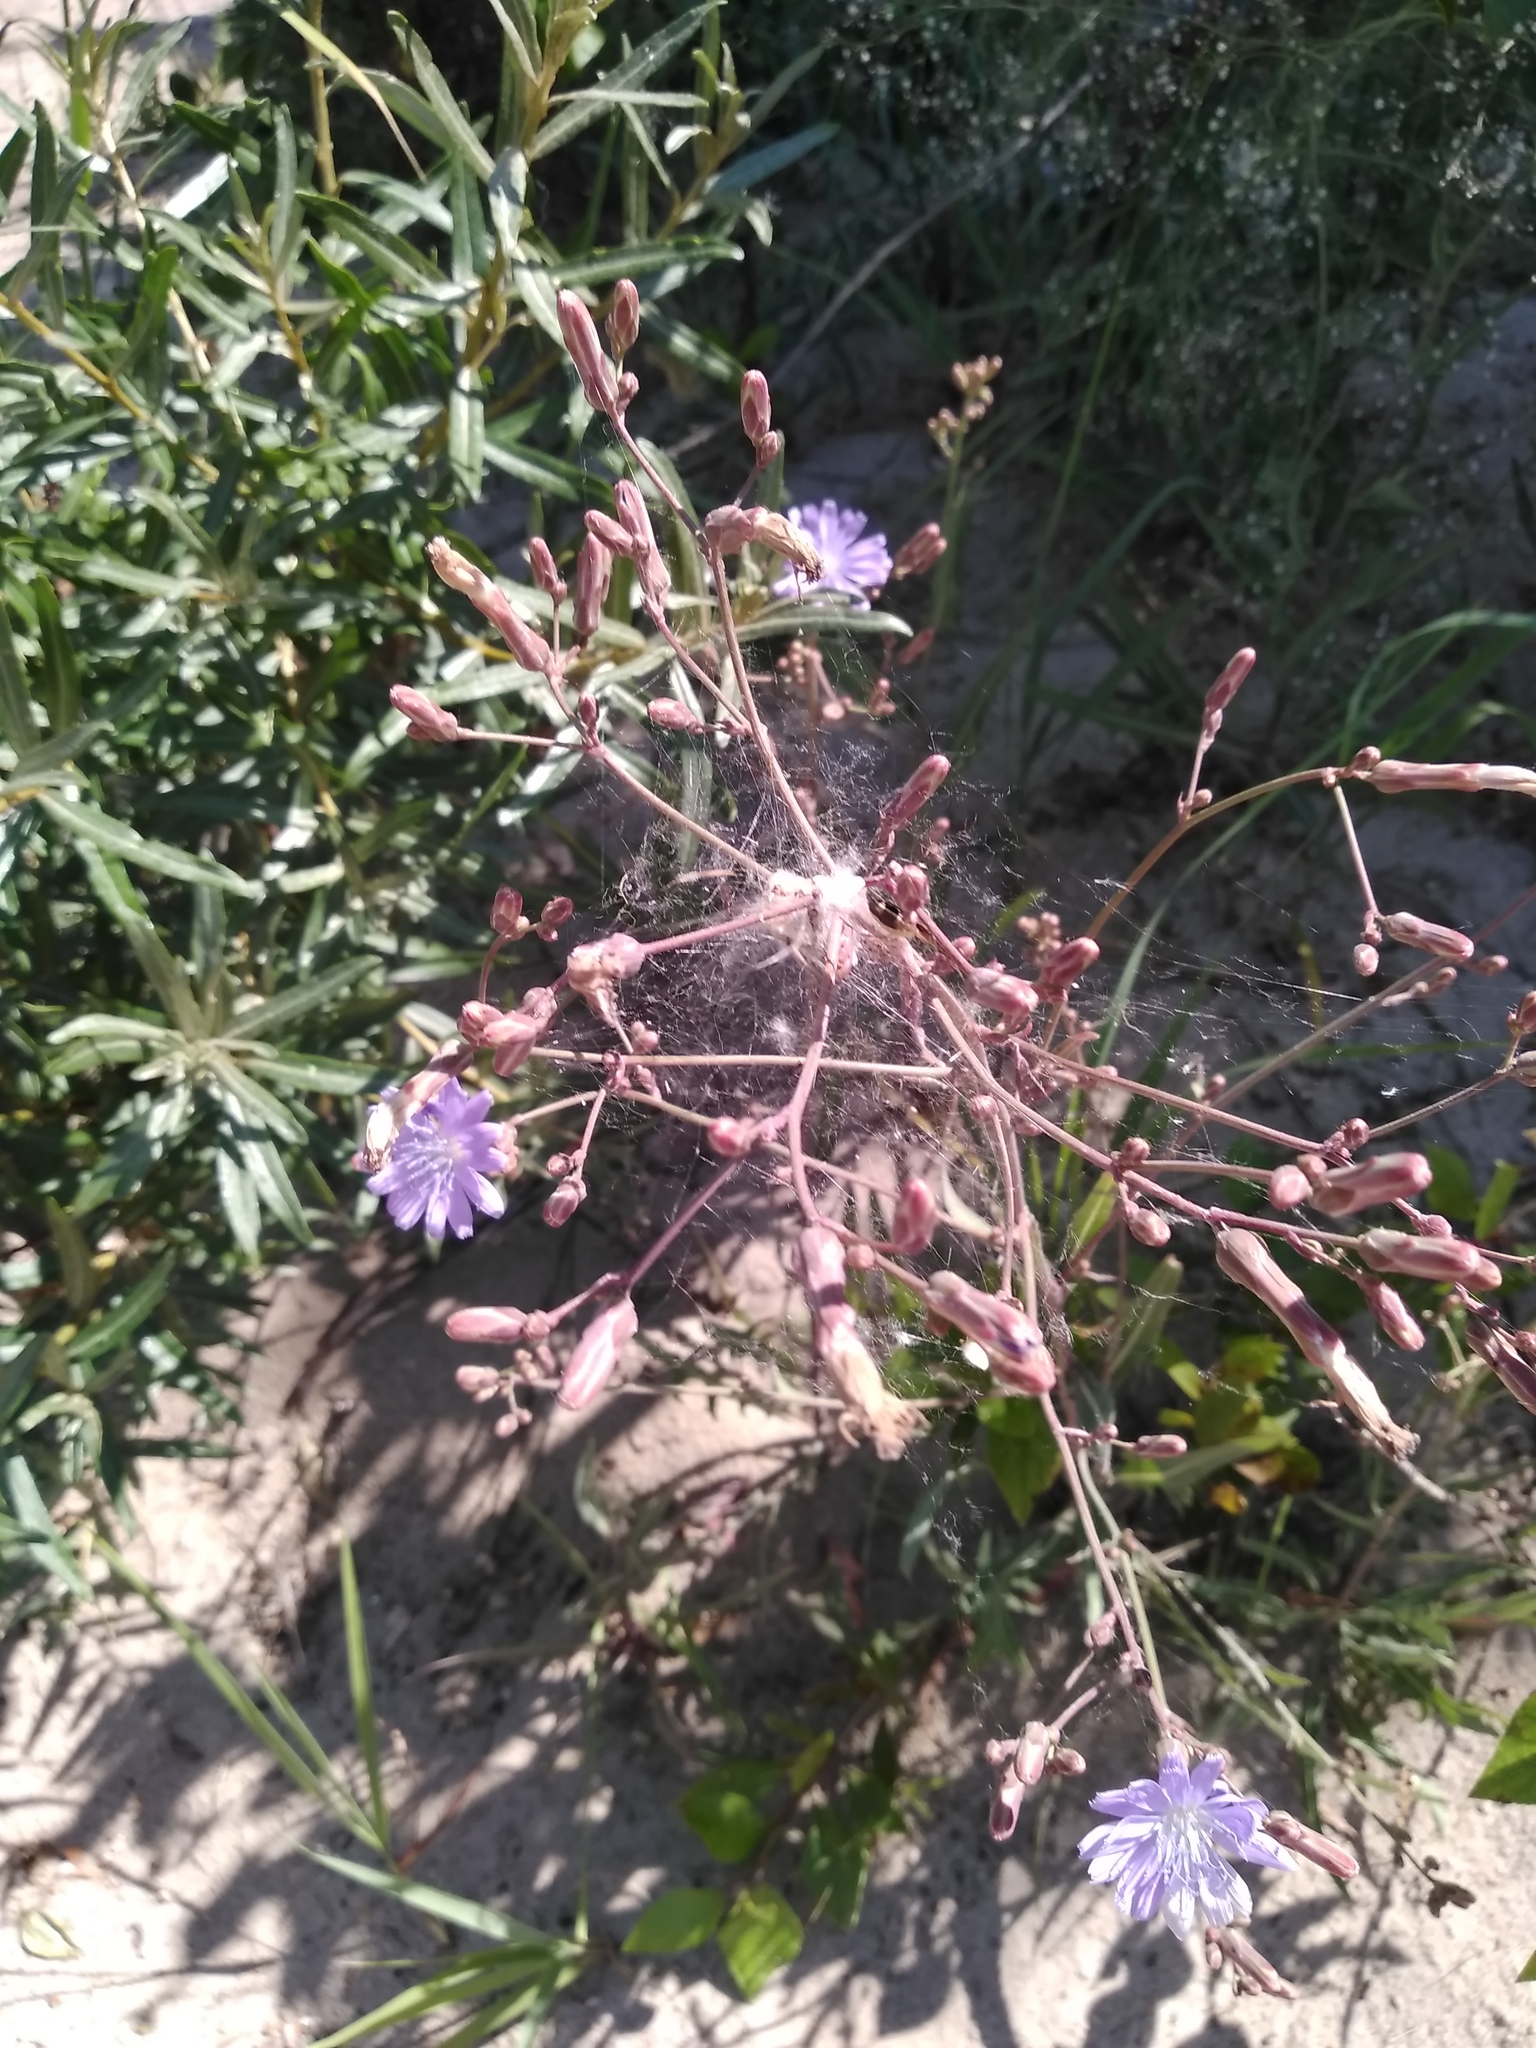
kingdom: Plantae
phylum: Tracheophyta
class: Magnoliopsida
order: Asterales
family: Asteraceae
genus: Lactuca
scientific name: Lactuca sibirica
